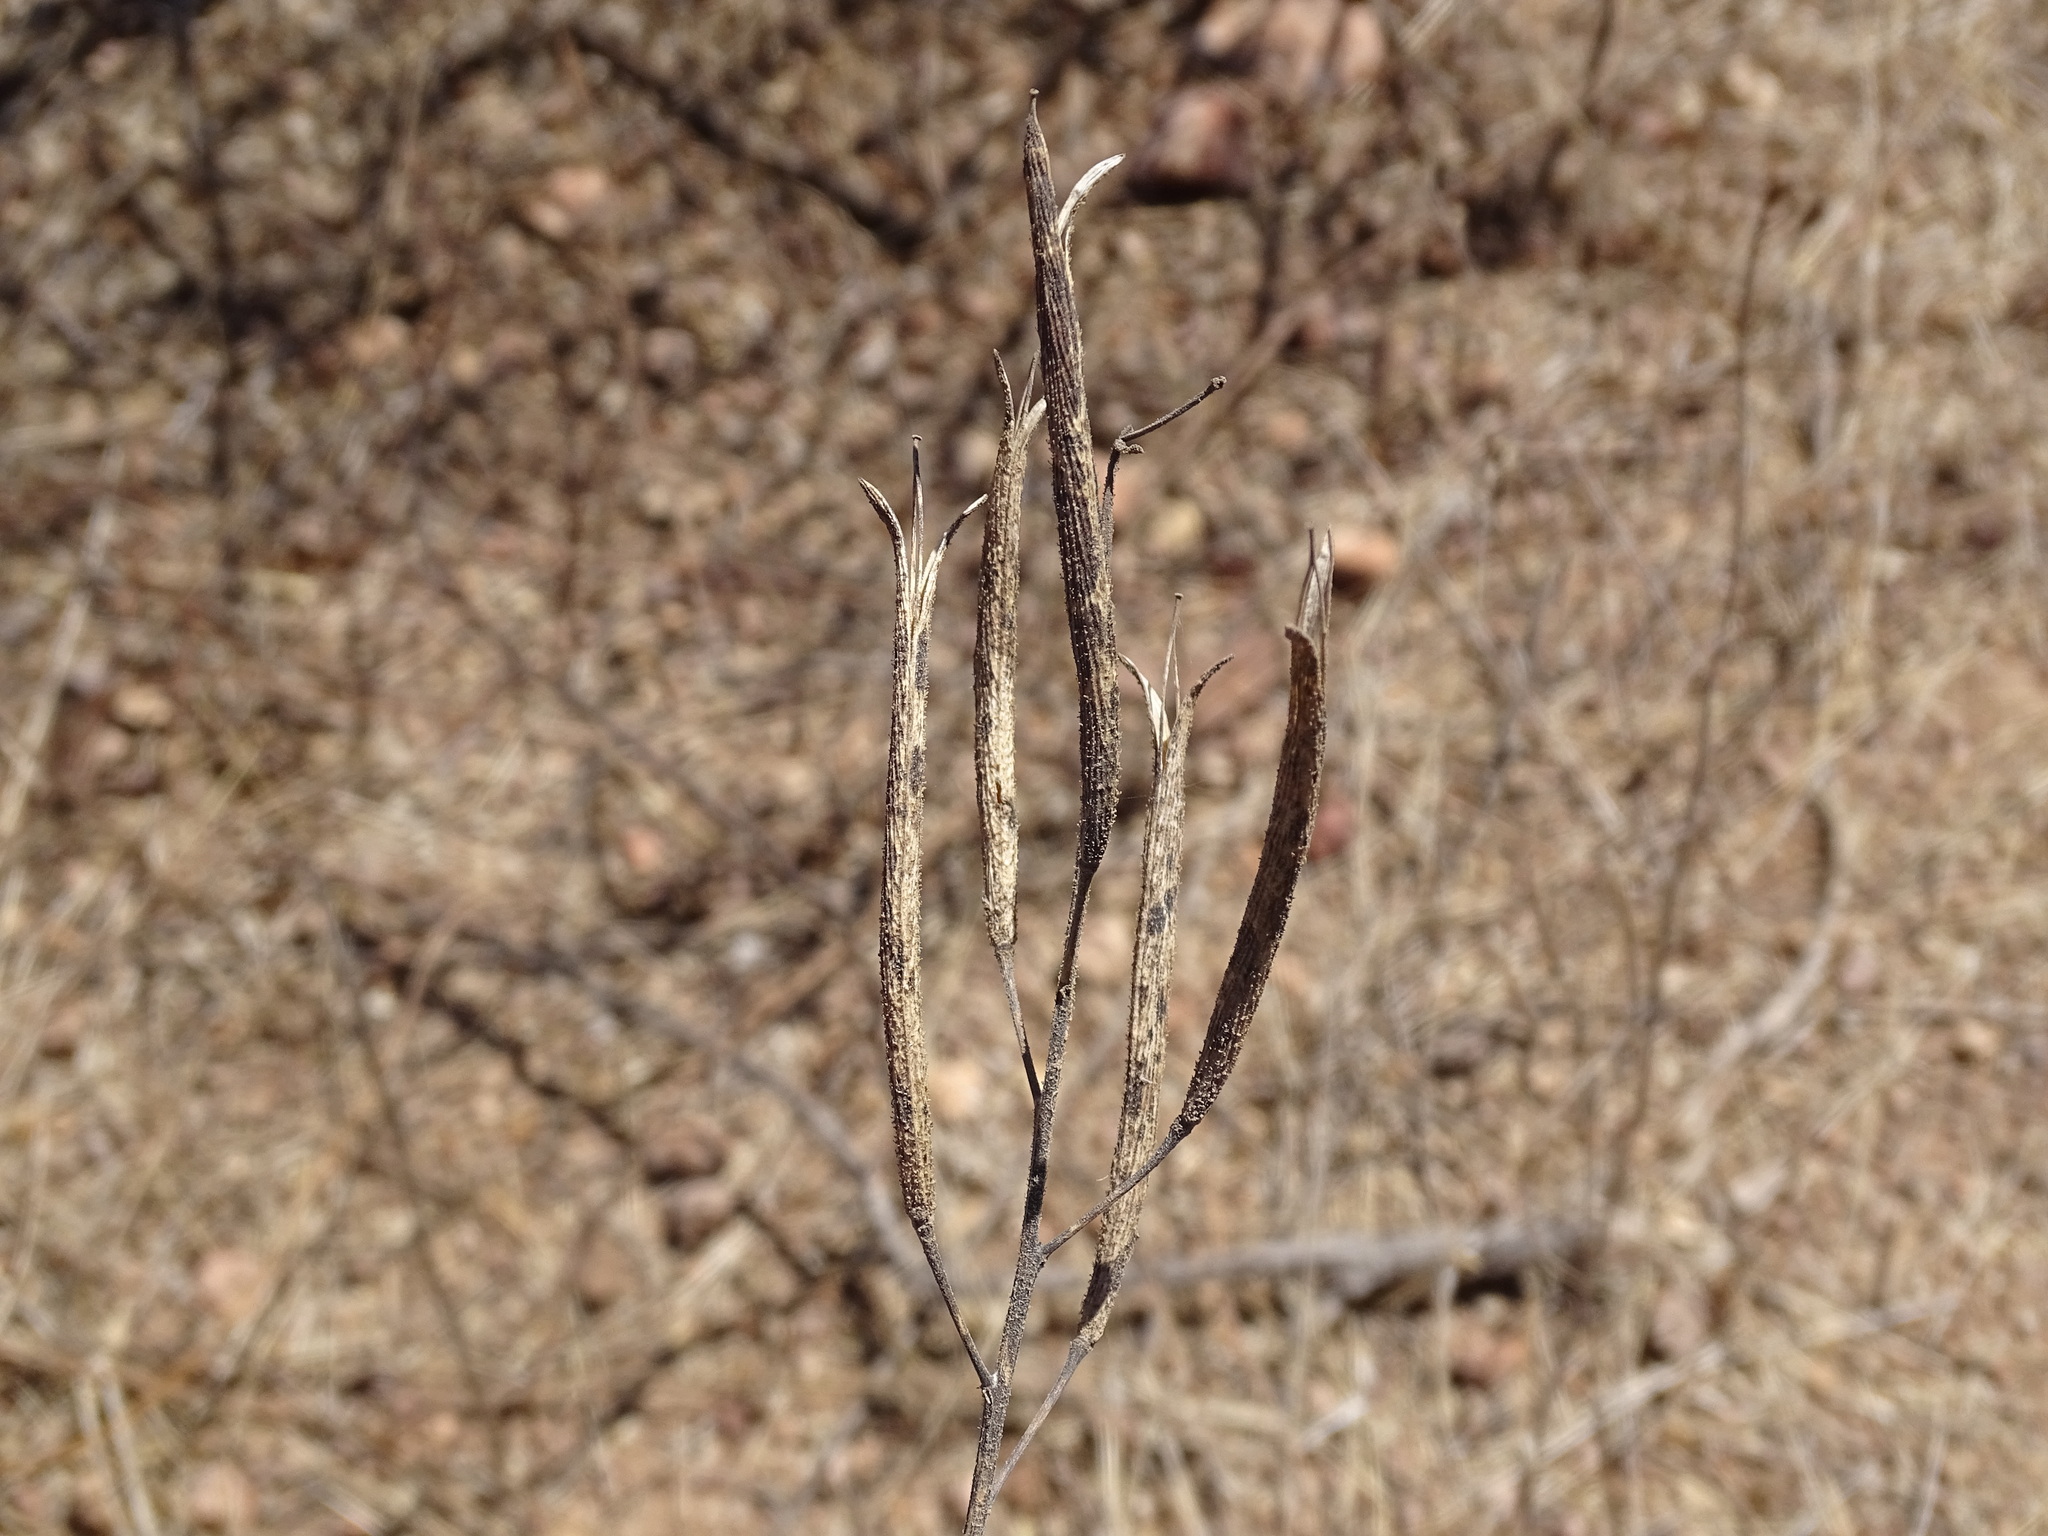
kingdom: Plantae
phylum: Tracheophyta
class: Magnoliopsida
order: Malvales
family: Malvaceae
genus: Corchorus
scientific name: Corchorus siliquosus
